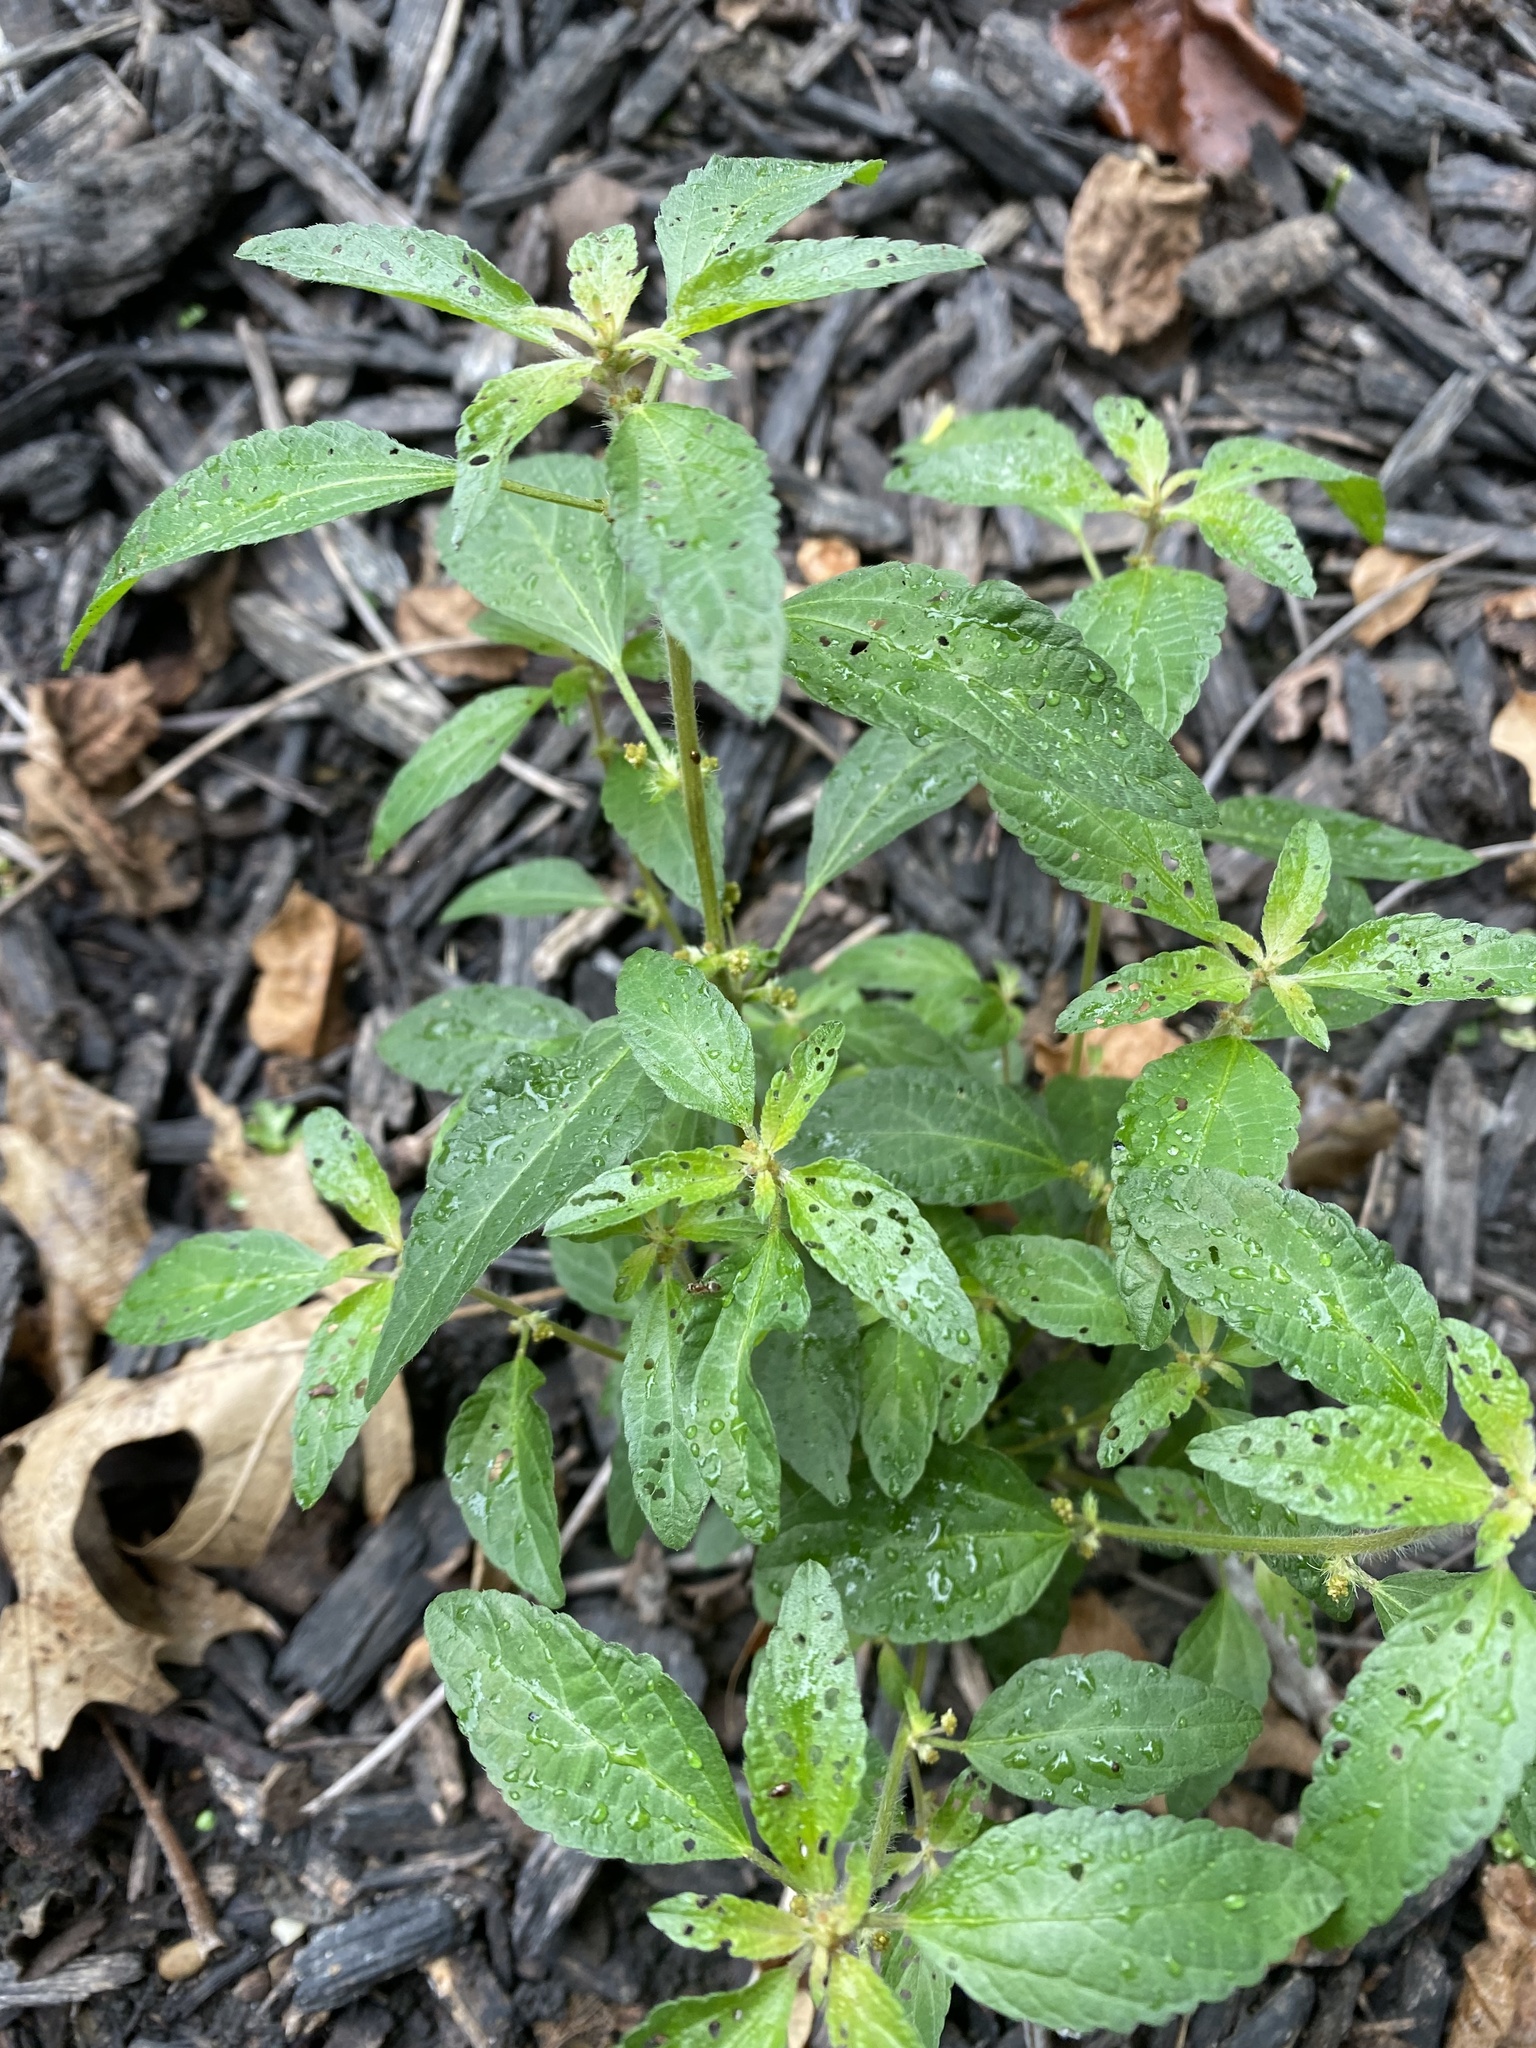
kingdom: Plantae
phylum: Tracheophyta
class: Magnoliopsida
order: Malpighiales
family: Euphorbiaceae
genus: Acalypha
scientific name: Acalypha rhomboidea
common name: Rhombic copperleaf
